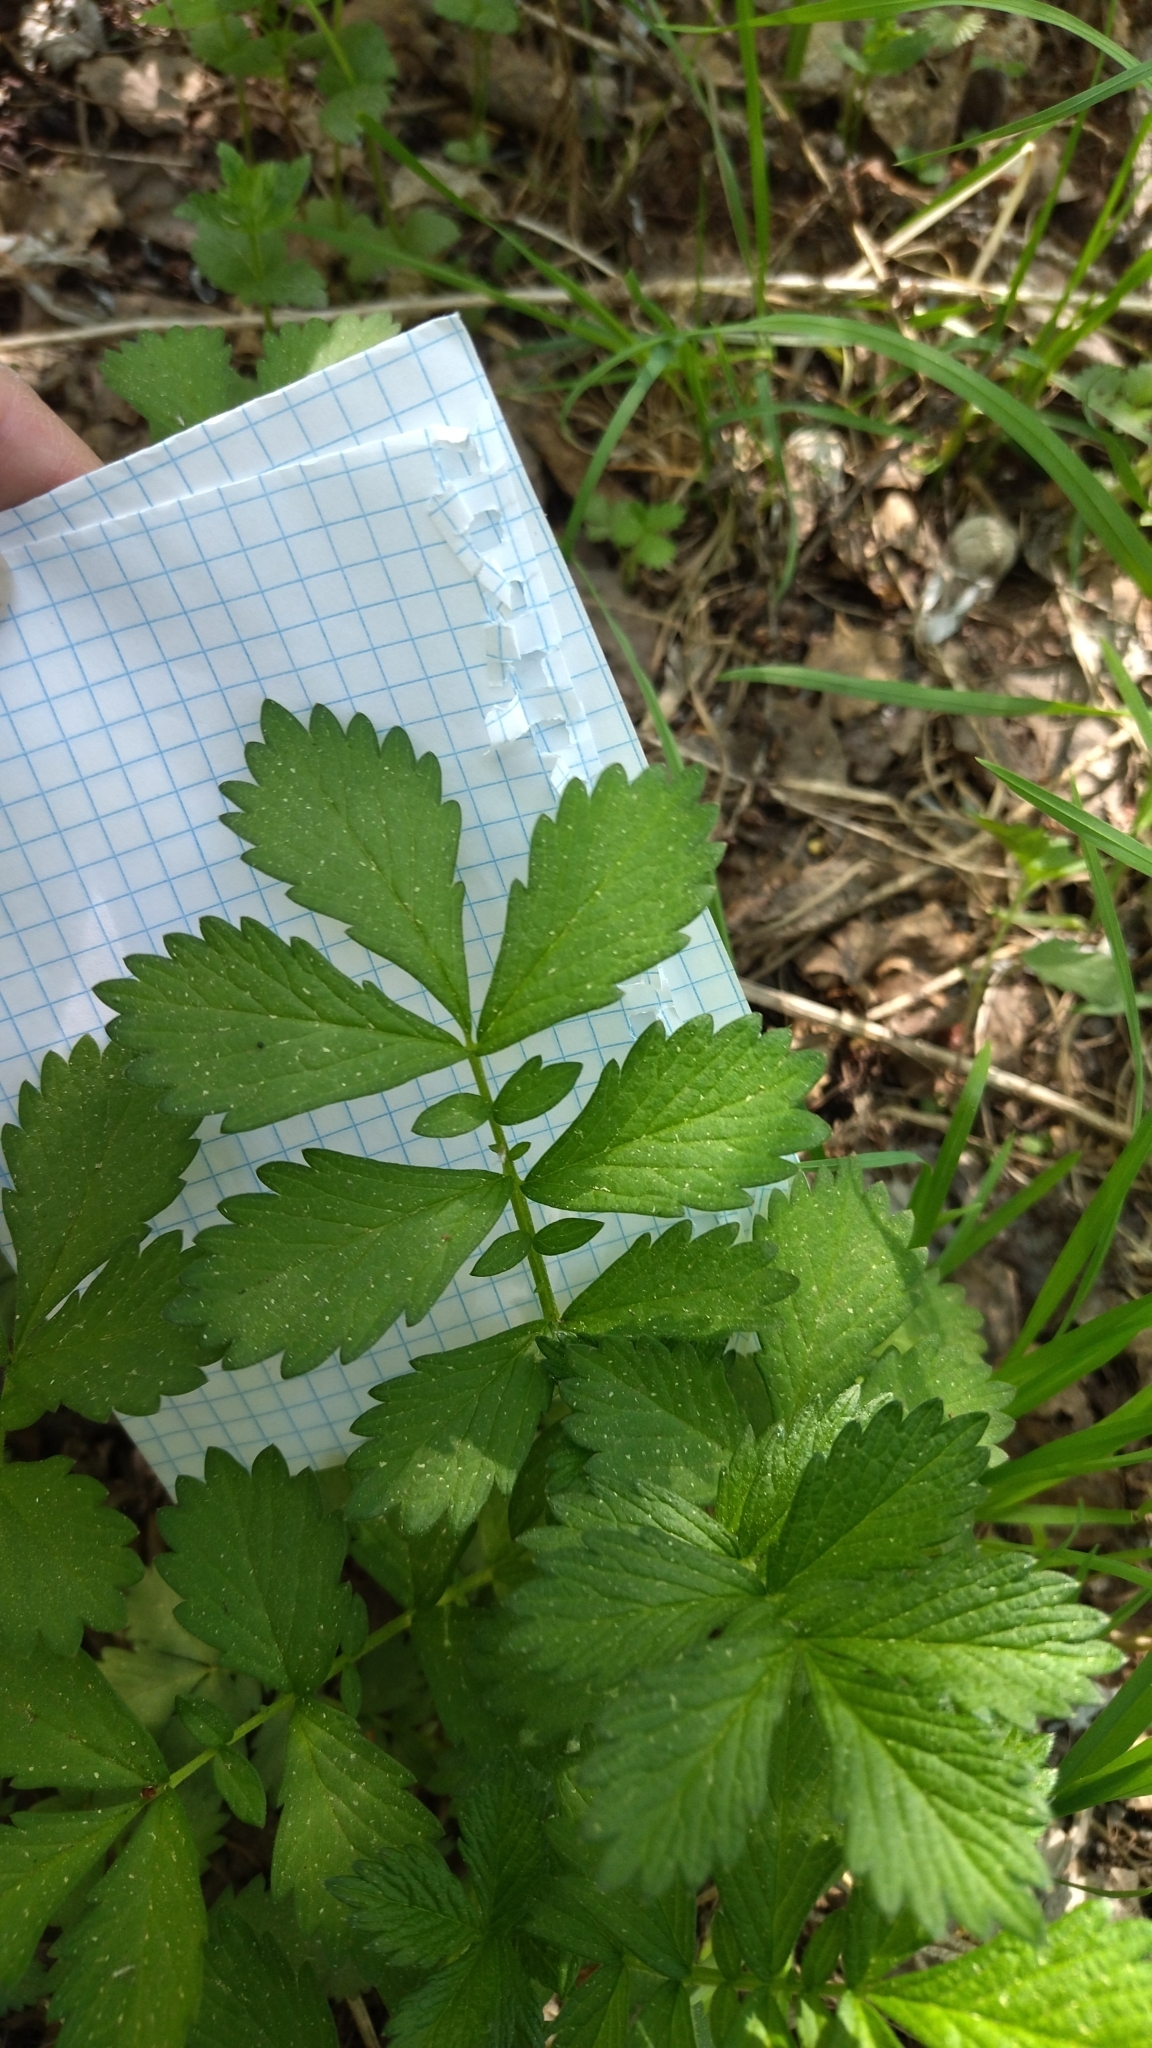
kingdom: Plantae
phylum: Tracheophyta
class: Magnoliopsida
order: Rosales
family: Rosaceae
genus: Agrimonia
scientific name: Agrimonia pilosa
